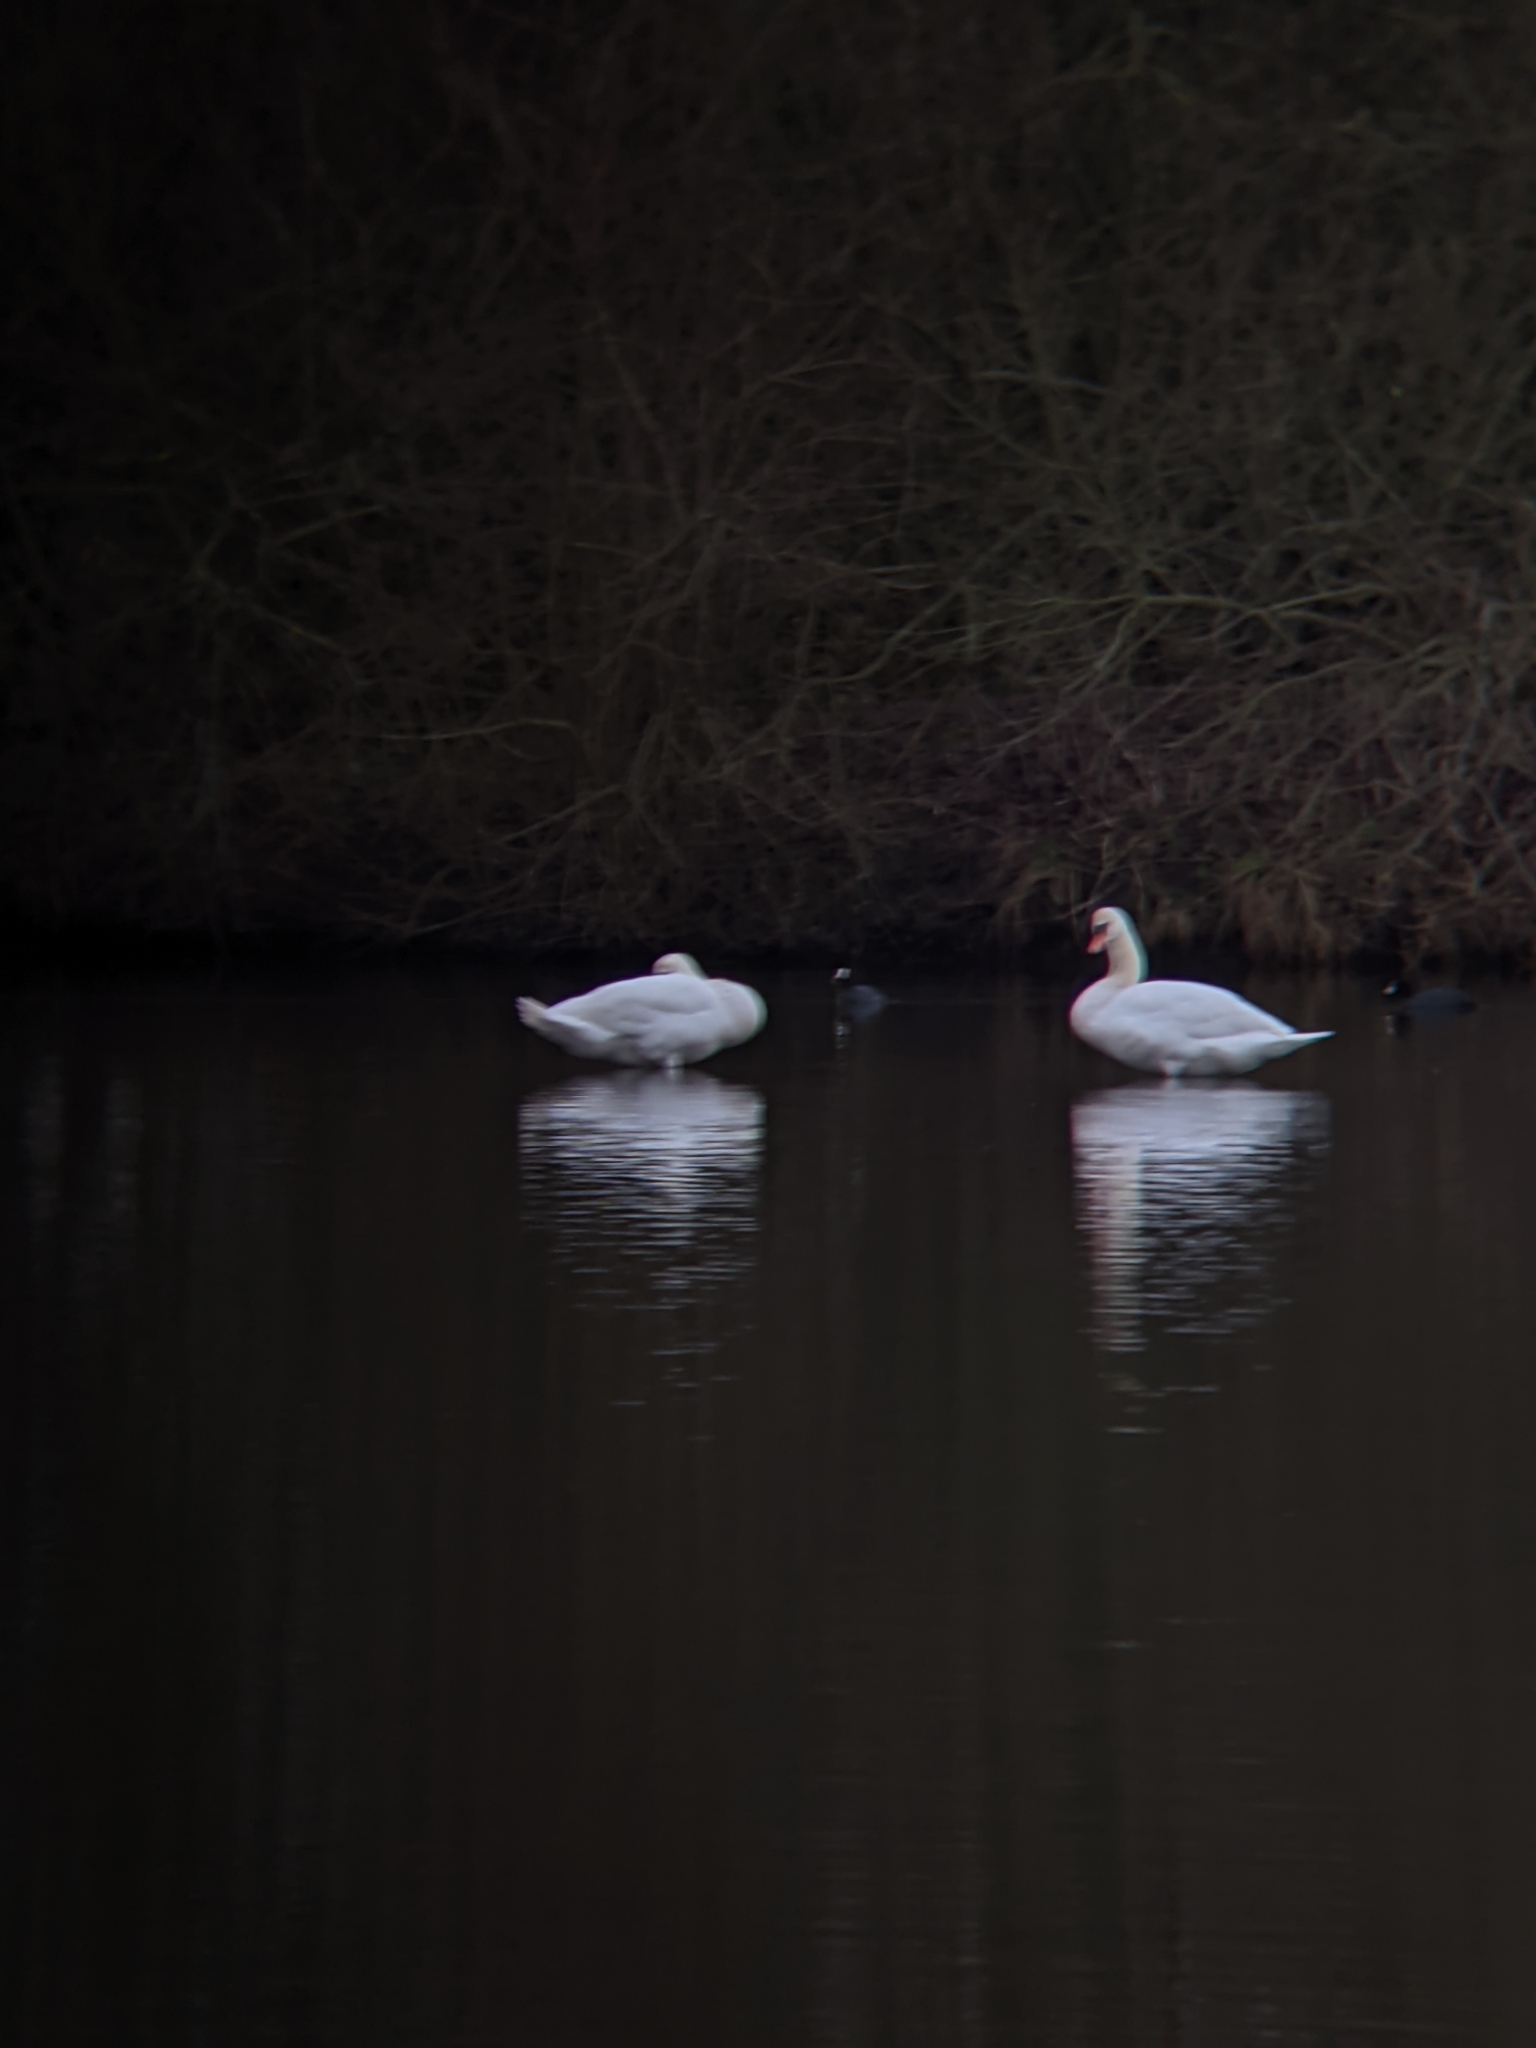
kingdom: Animalia
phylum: Chordata
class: Aves
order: Anseriformes
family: Anatidae
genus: Cygnus
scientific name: Cygnus olor
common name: Mute swan
